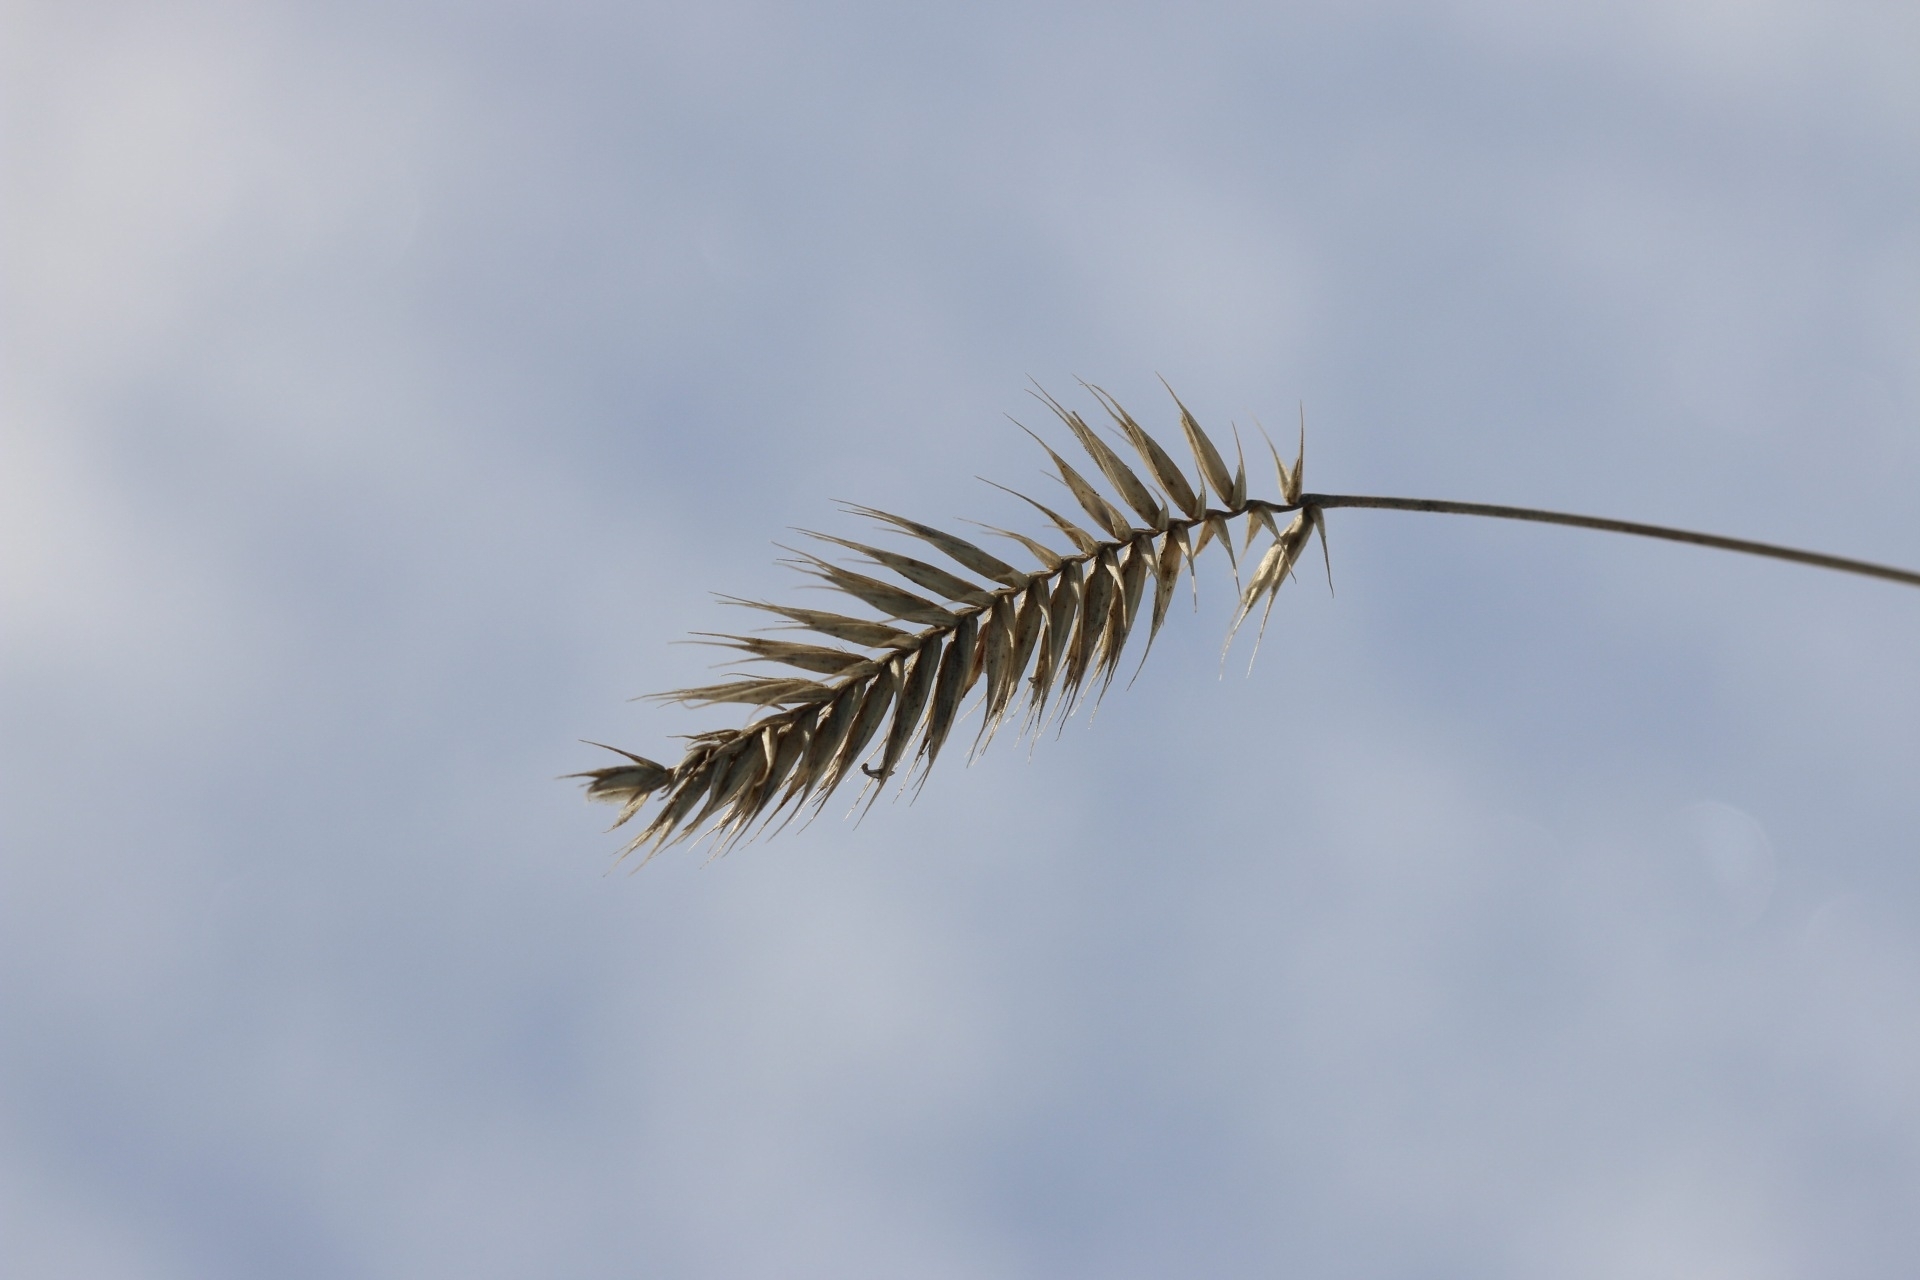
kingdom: Plantae
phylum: Tracheophyta
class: Liliopsida
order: Poales
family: Poaceae
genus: Agropyron
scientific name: Agropyron cristatum
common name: Crested wheatgrass
